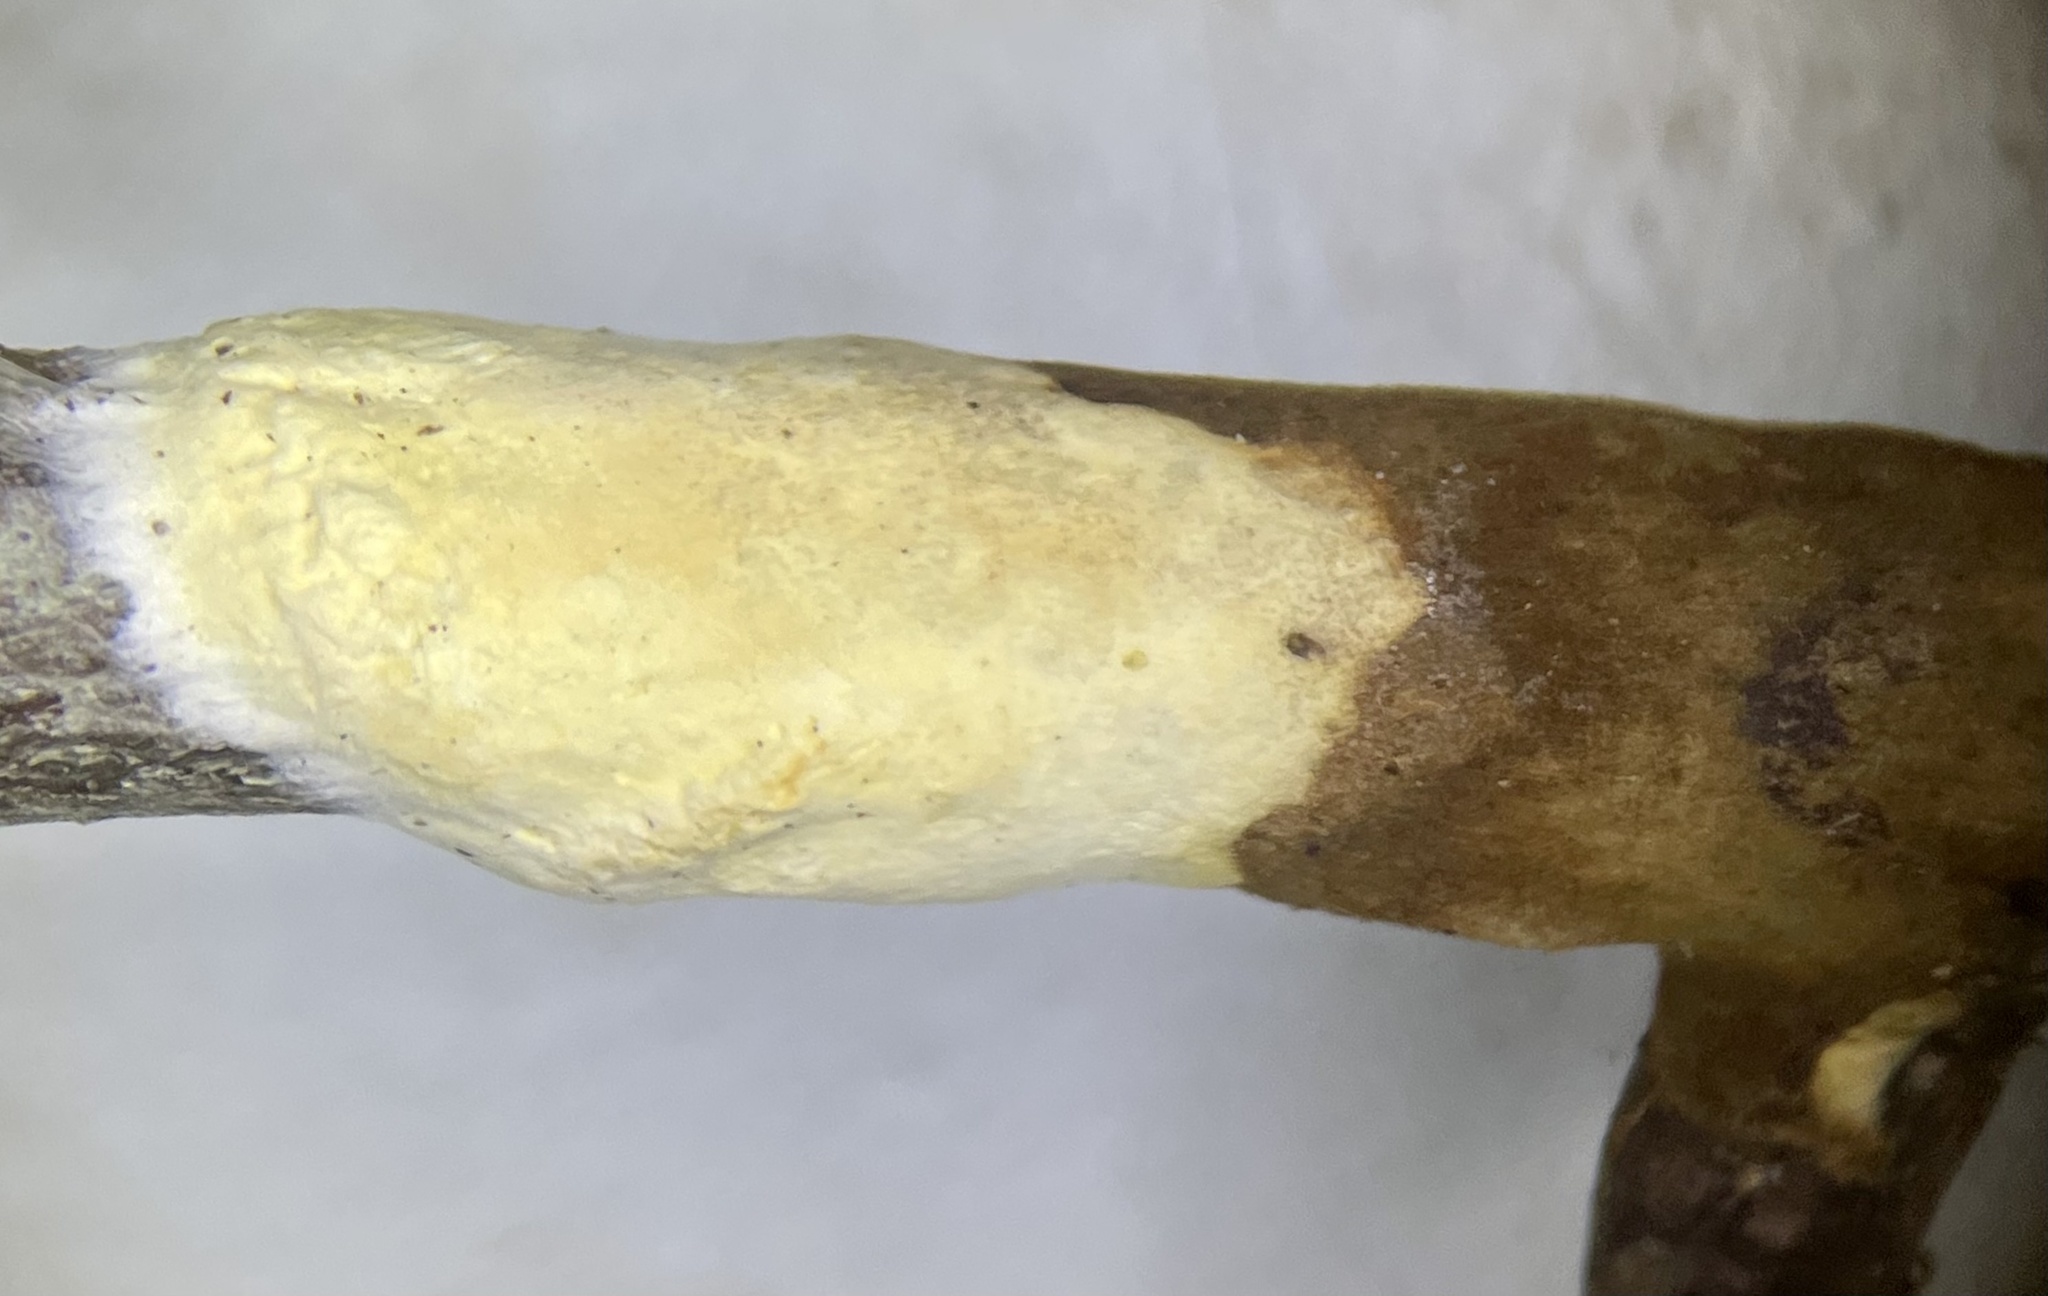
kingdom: Fungi
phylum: Basidiomycota
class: Agaricomycetes
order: Hymenochaetales
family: Hymenochaetaceae
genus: Hydnoporia
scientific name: Hydnoporia diffissa
